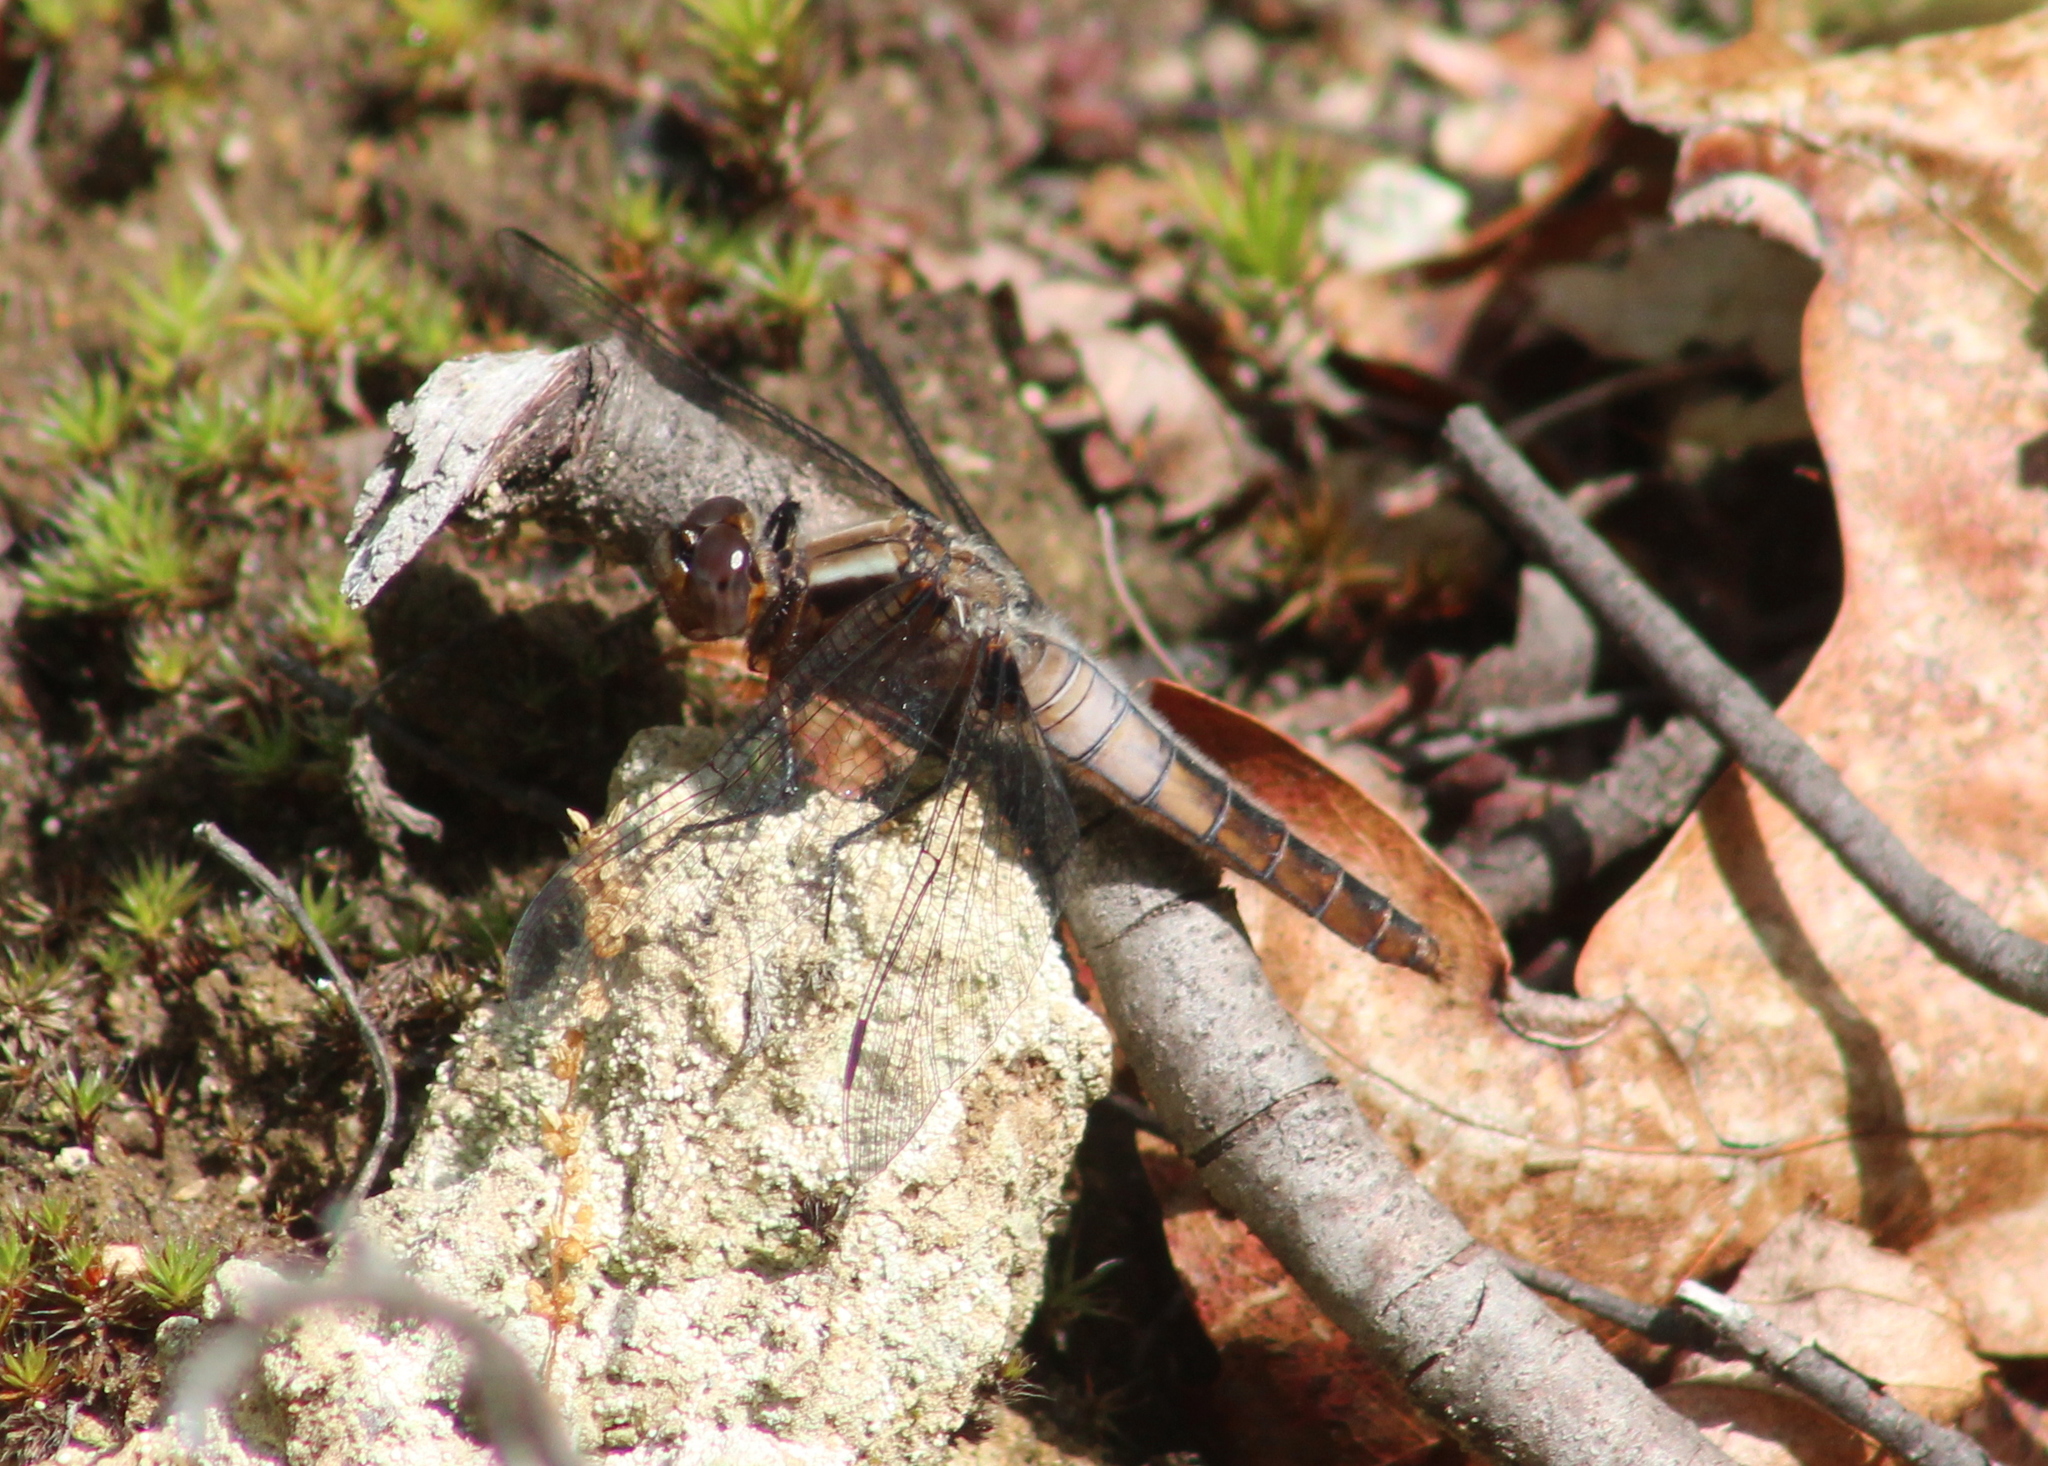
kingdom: Animalia
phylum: Arthropoda
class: Insecta
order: Odonata
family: Libellulidae
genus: Ladona
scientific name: Ladona julia
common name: Chalk-fronted corporal
